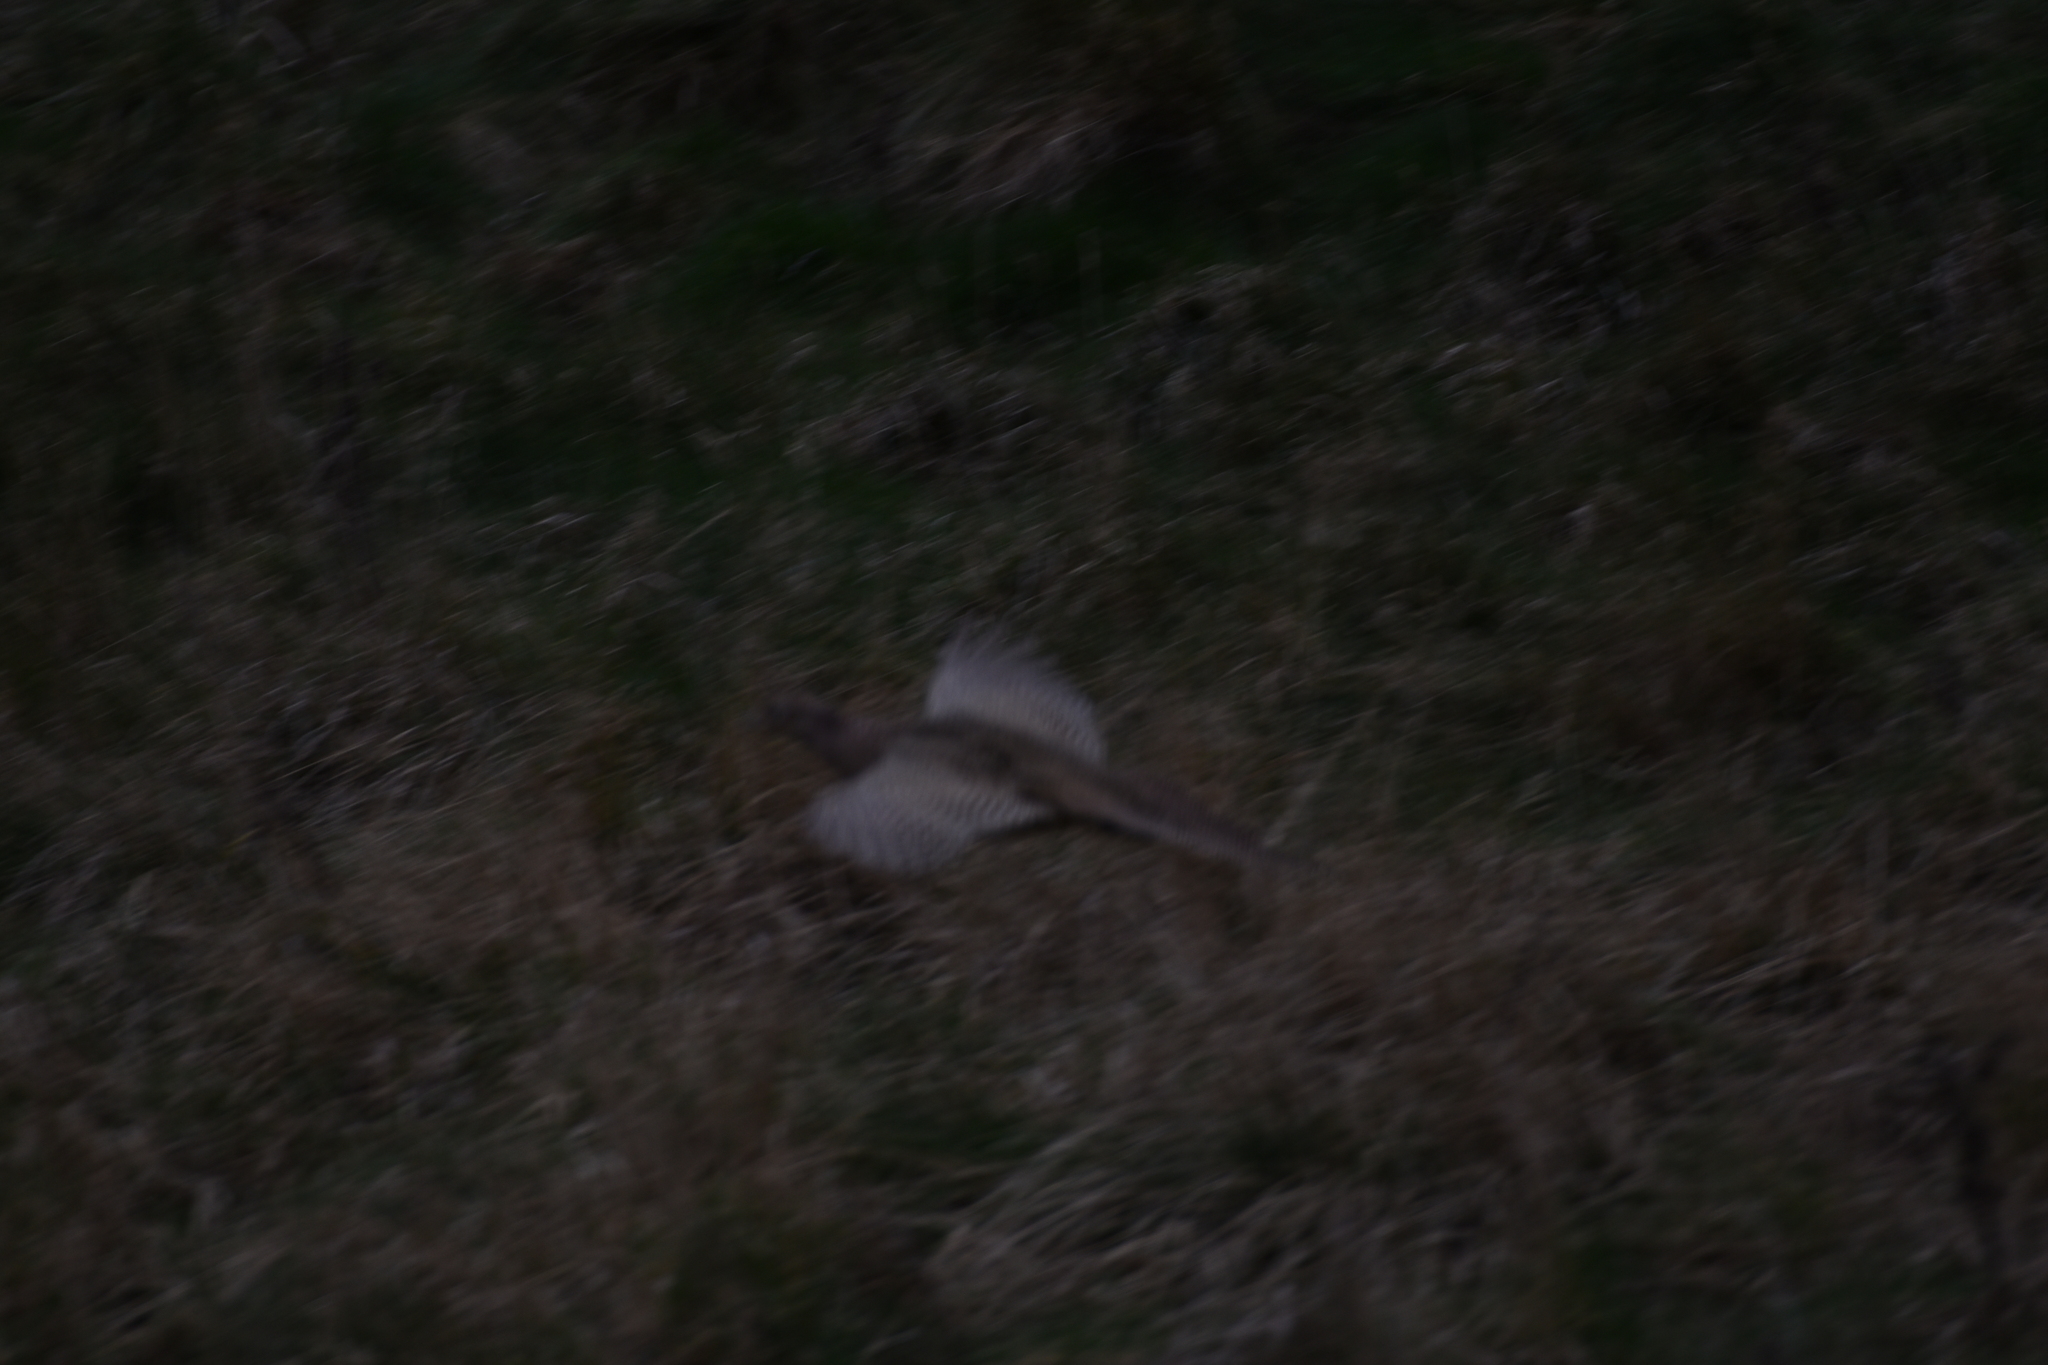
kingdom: Animalia
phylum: Chordata
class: Aves
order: Galliformes
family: Phasianidae
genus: Phasianus
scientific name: Phasianus colchicus
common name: Common pheasant
